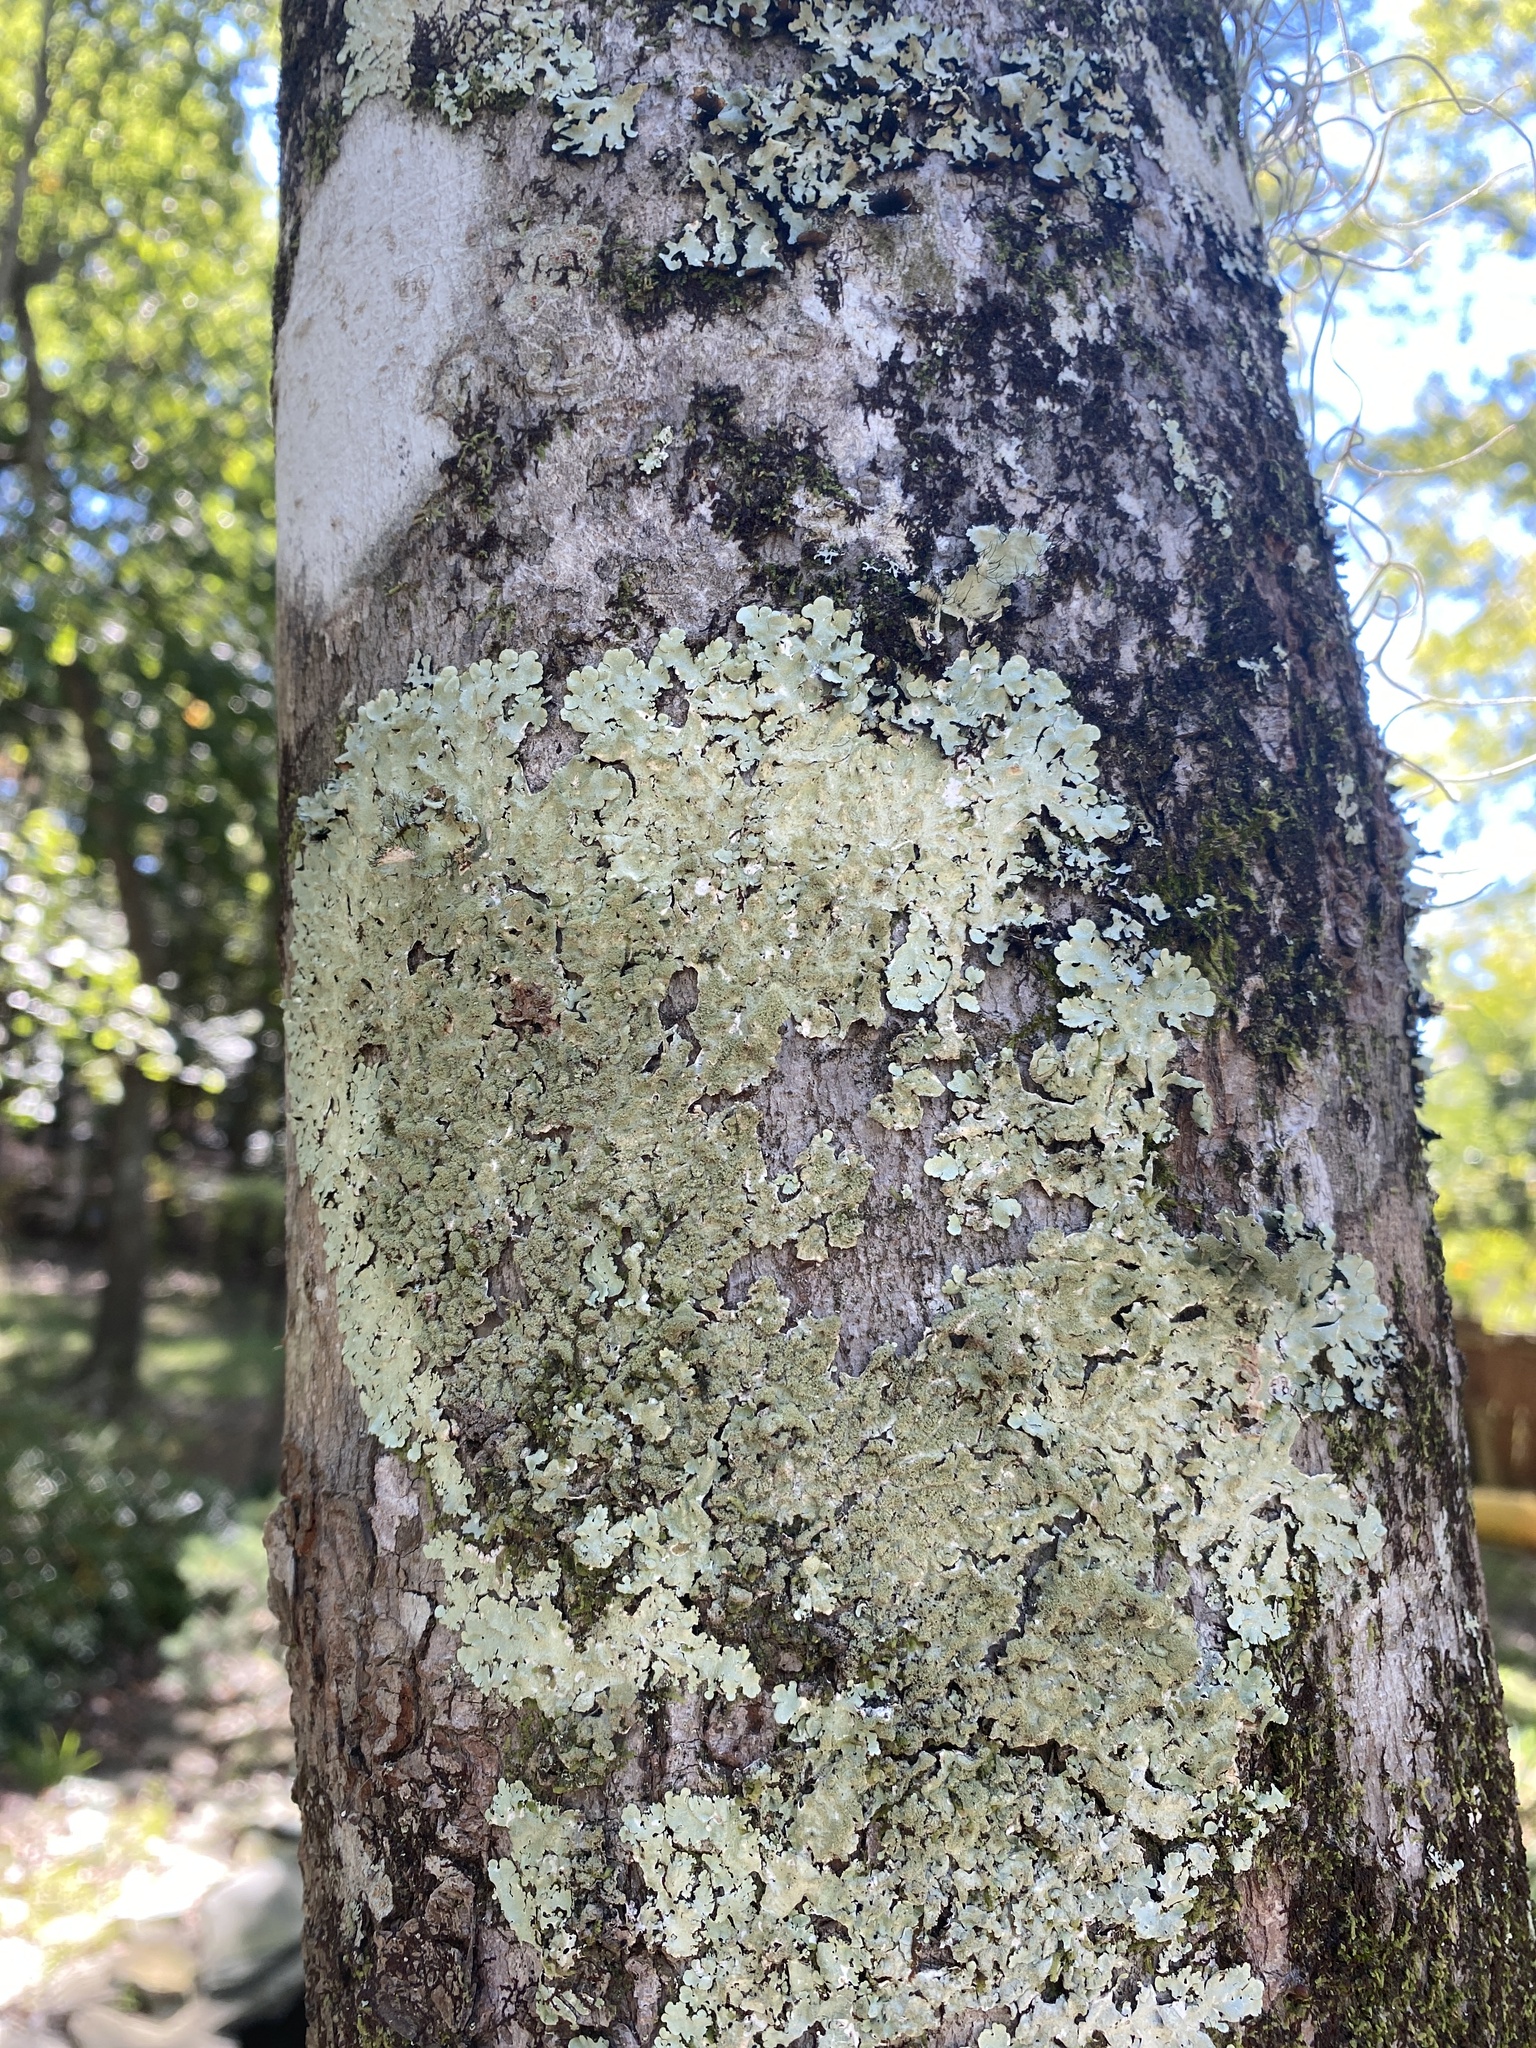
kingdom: Fungi
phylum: Ascomycota
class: Lecanoromycetes
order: Lecanorales
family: Parmeliaceae
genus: Canoparmelia
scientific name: Canoparmelia caroliniana
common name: Carolina shield lichen
